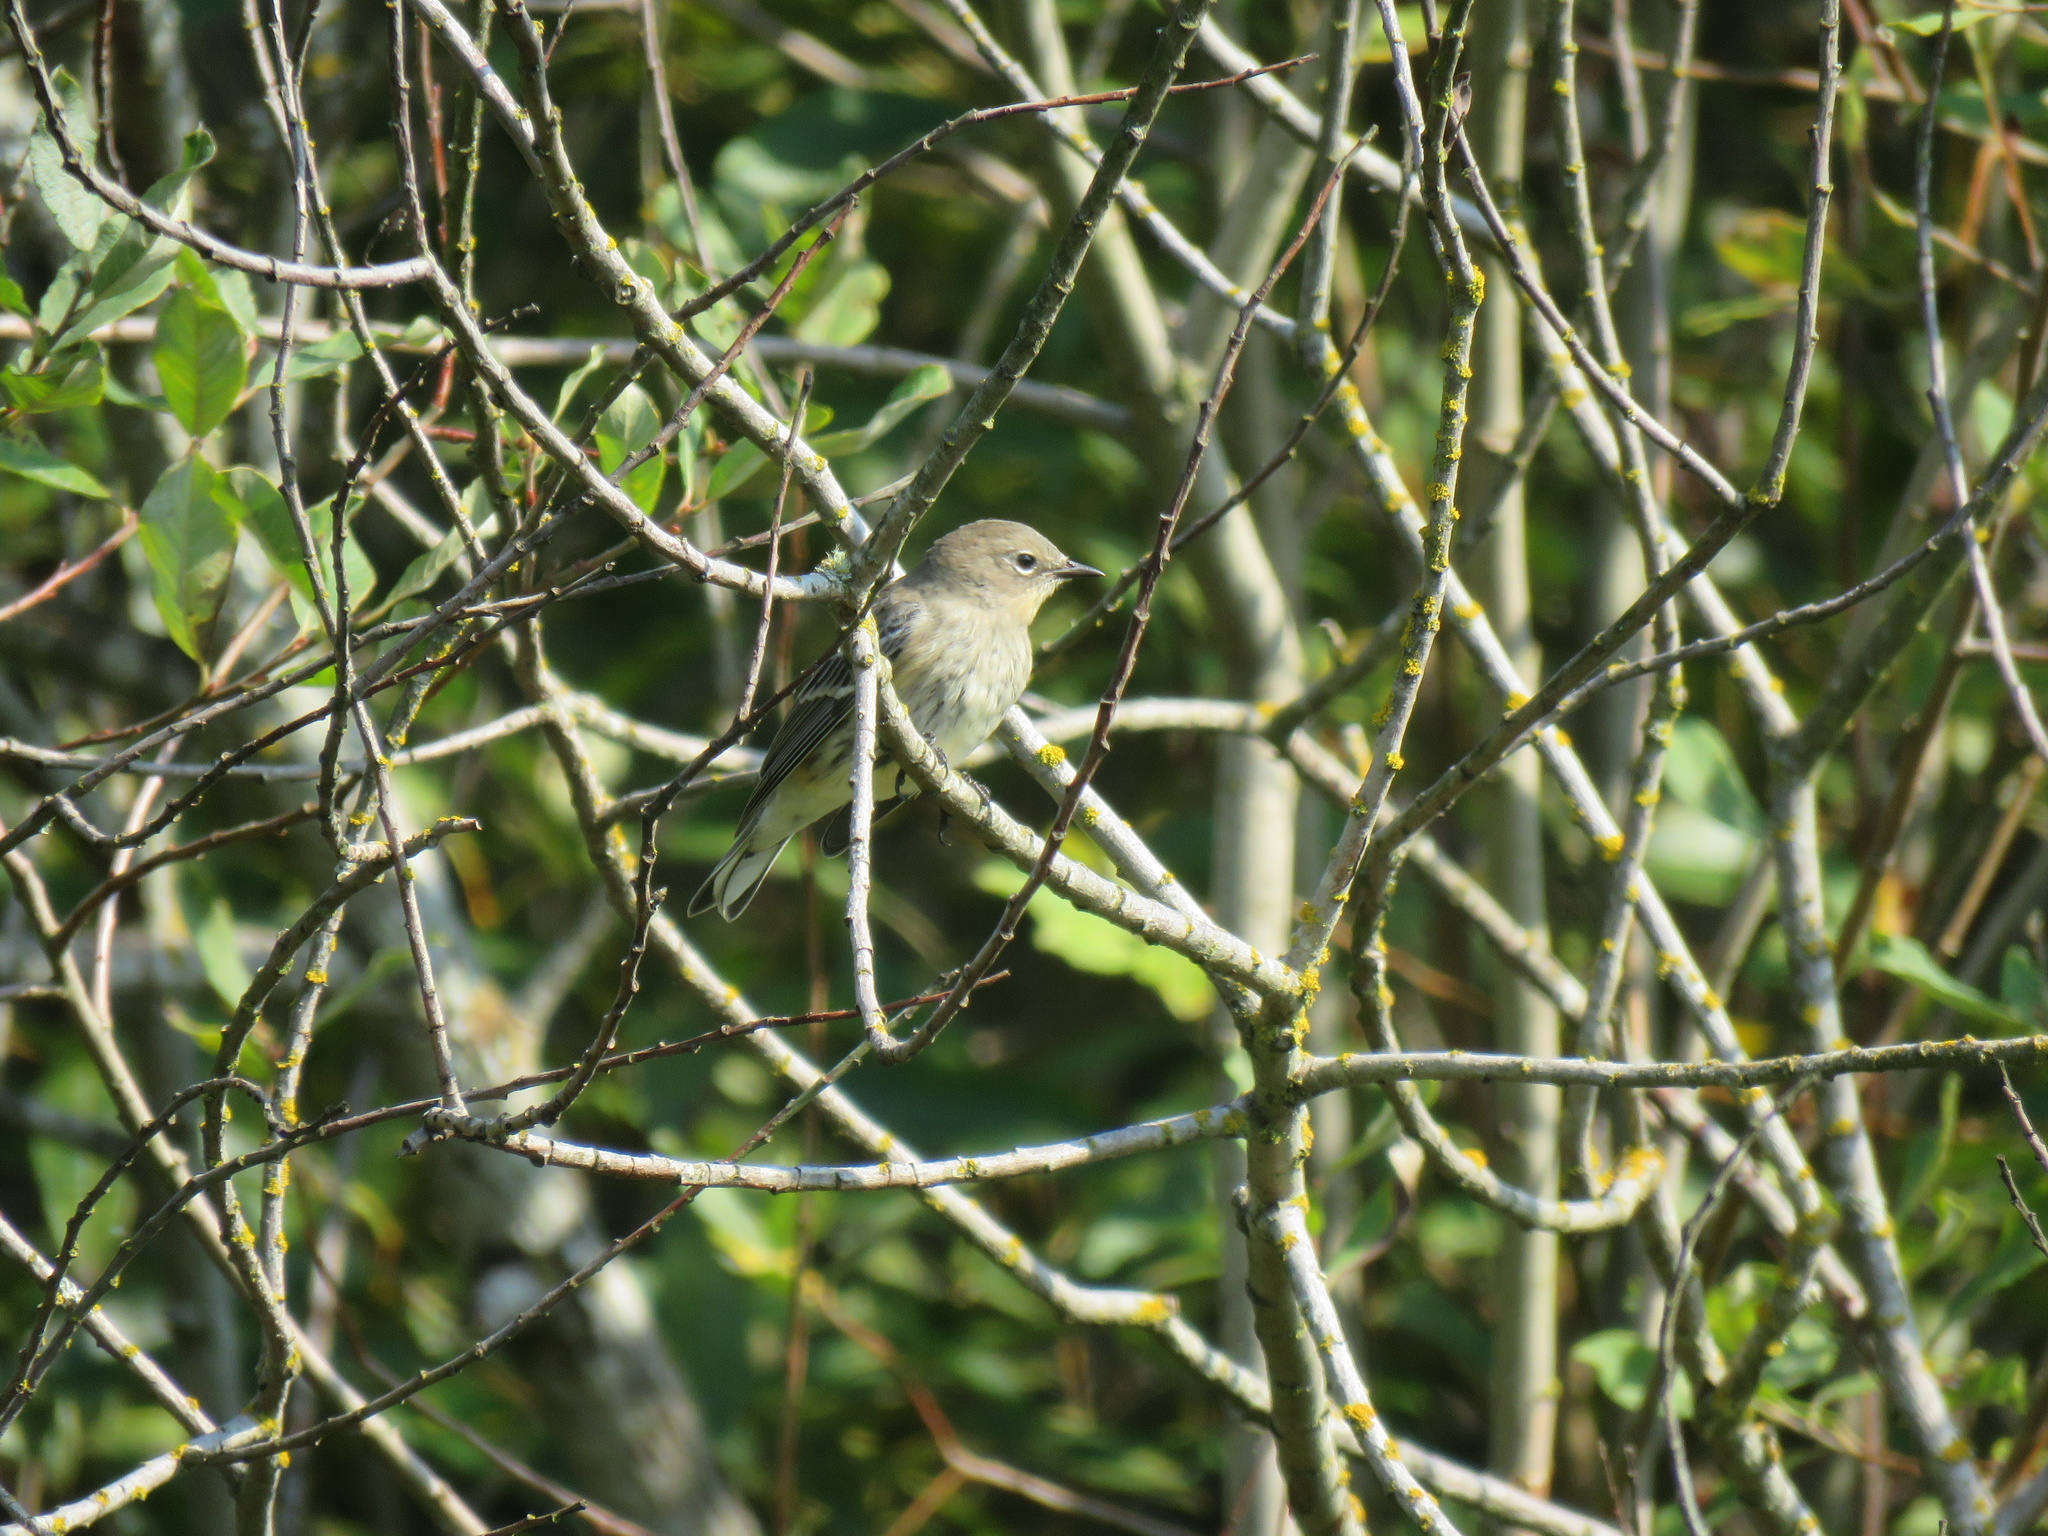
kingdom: Animalia
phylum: Chordata
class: Aves
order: Passeriformes
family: Parulidae
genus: Setophaga
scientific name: Setophaga coronata
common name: Myrtle warbler
